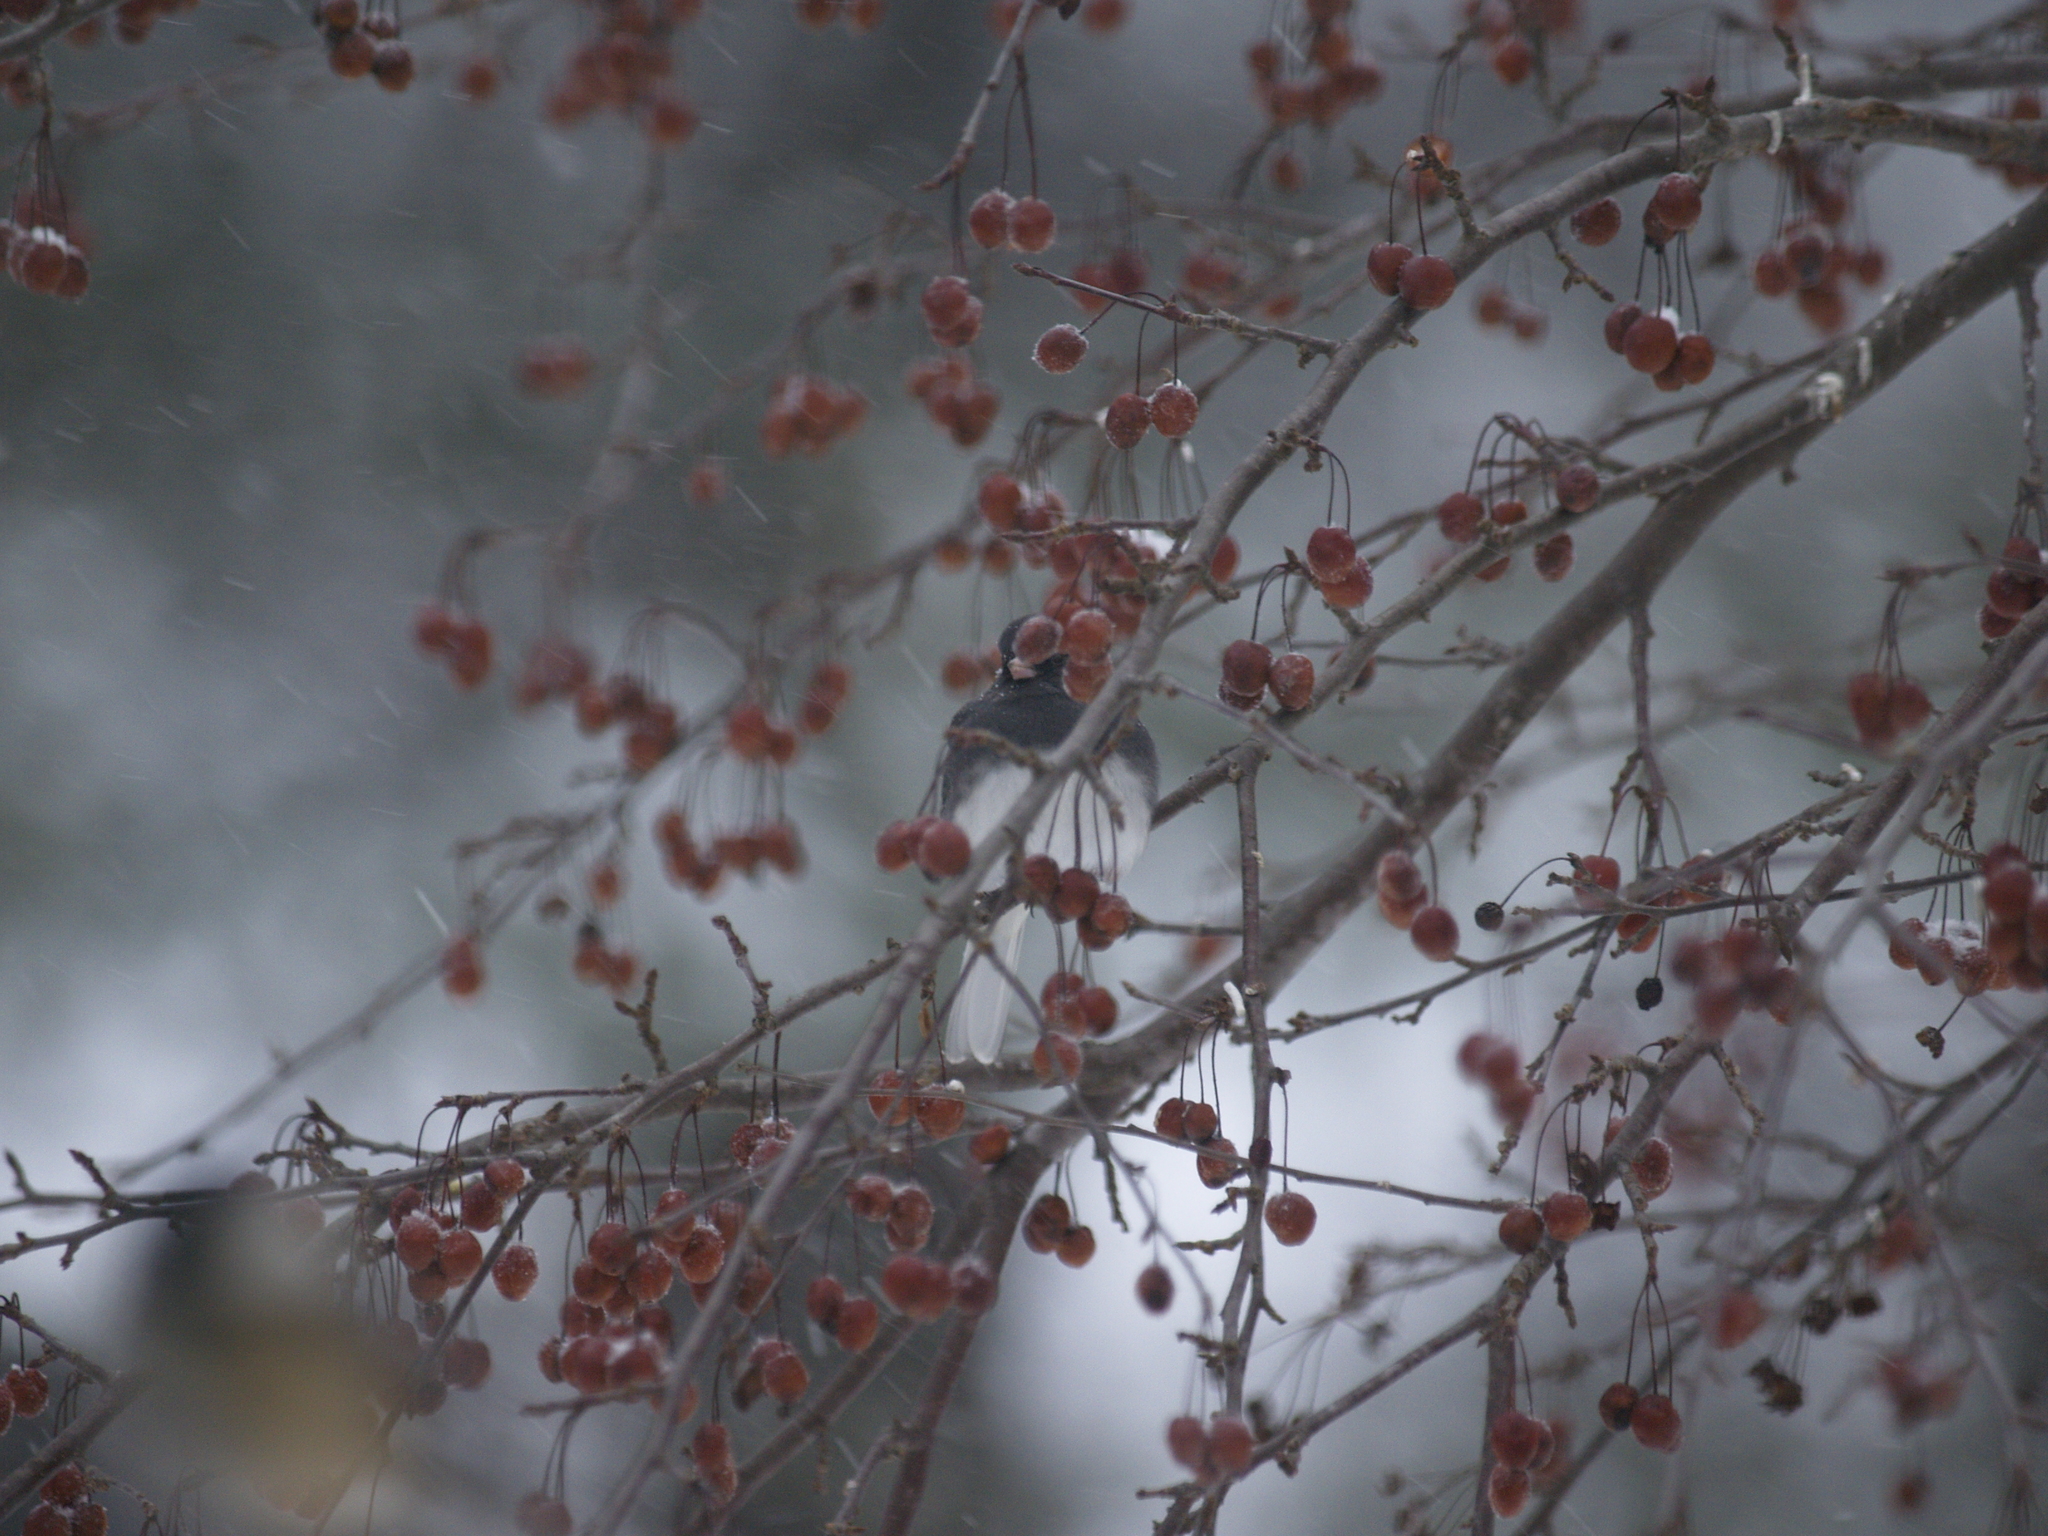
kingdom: Animalia
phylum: Chordata
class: Aves
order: Passeriformes
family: Passerellidae
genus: Junco
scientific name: Junco hyemalis
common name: Dark-eyed junco
